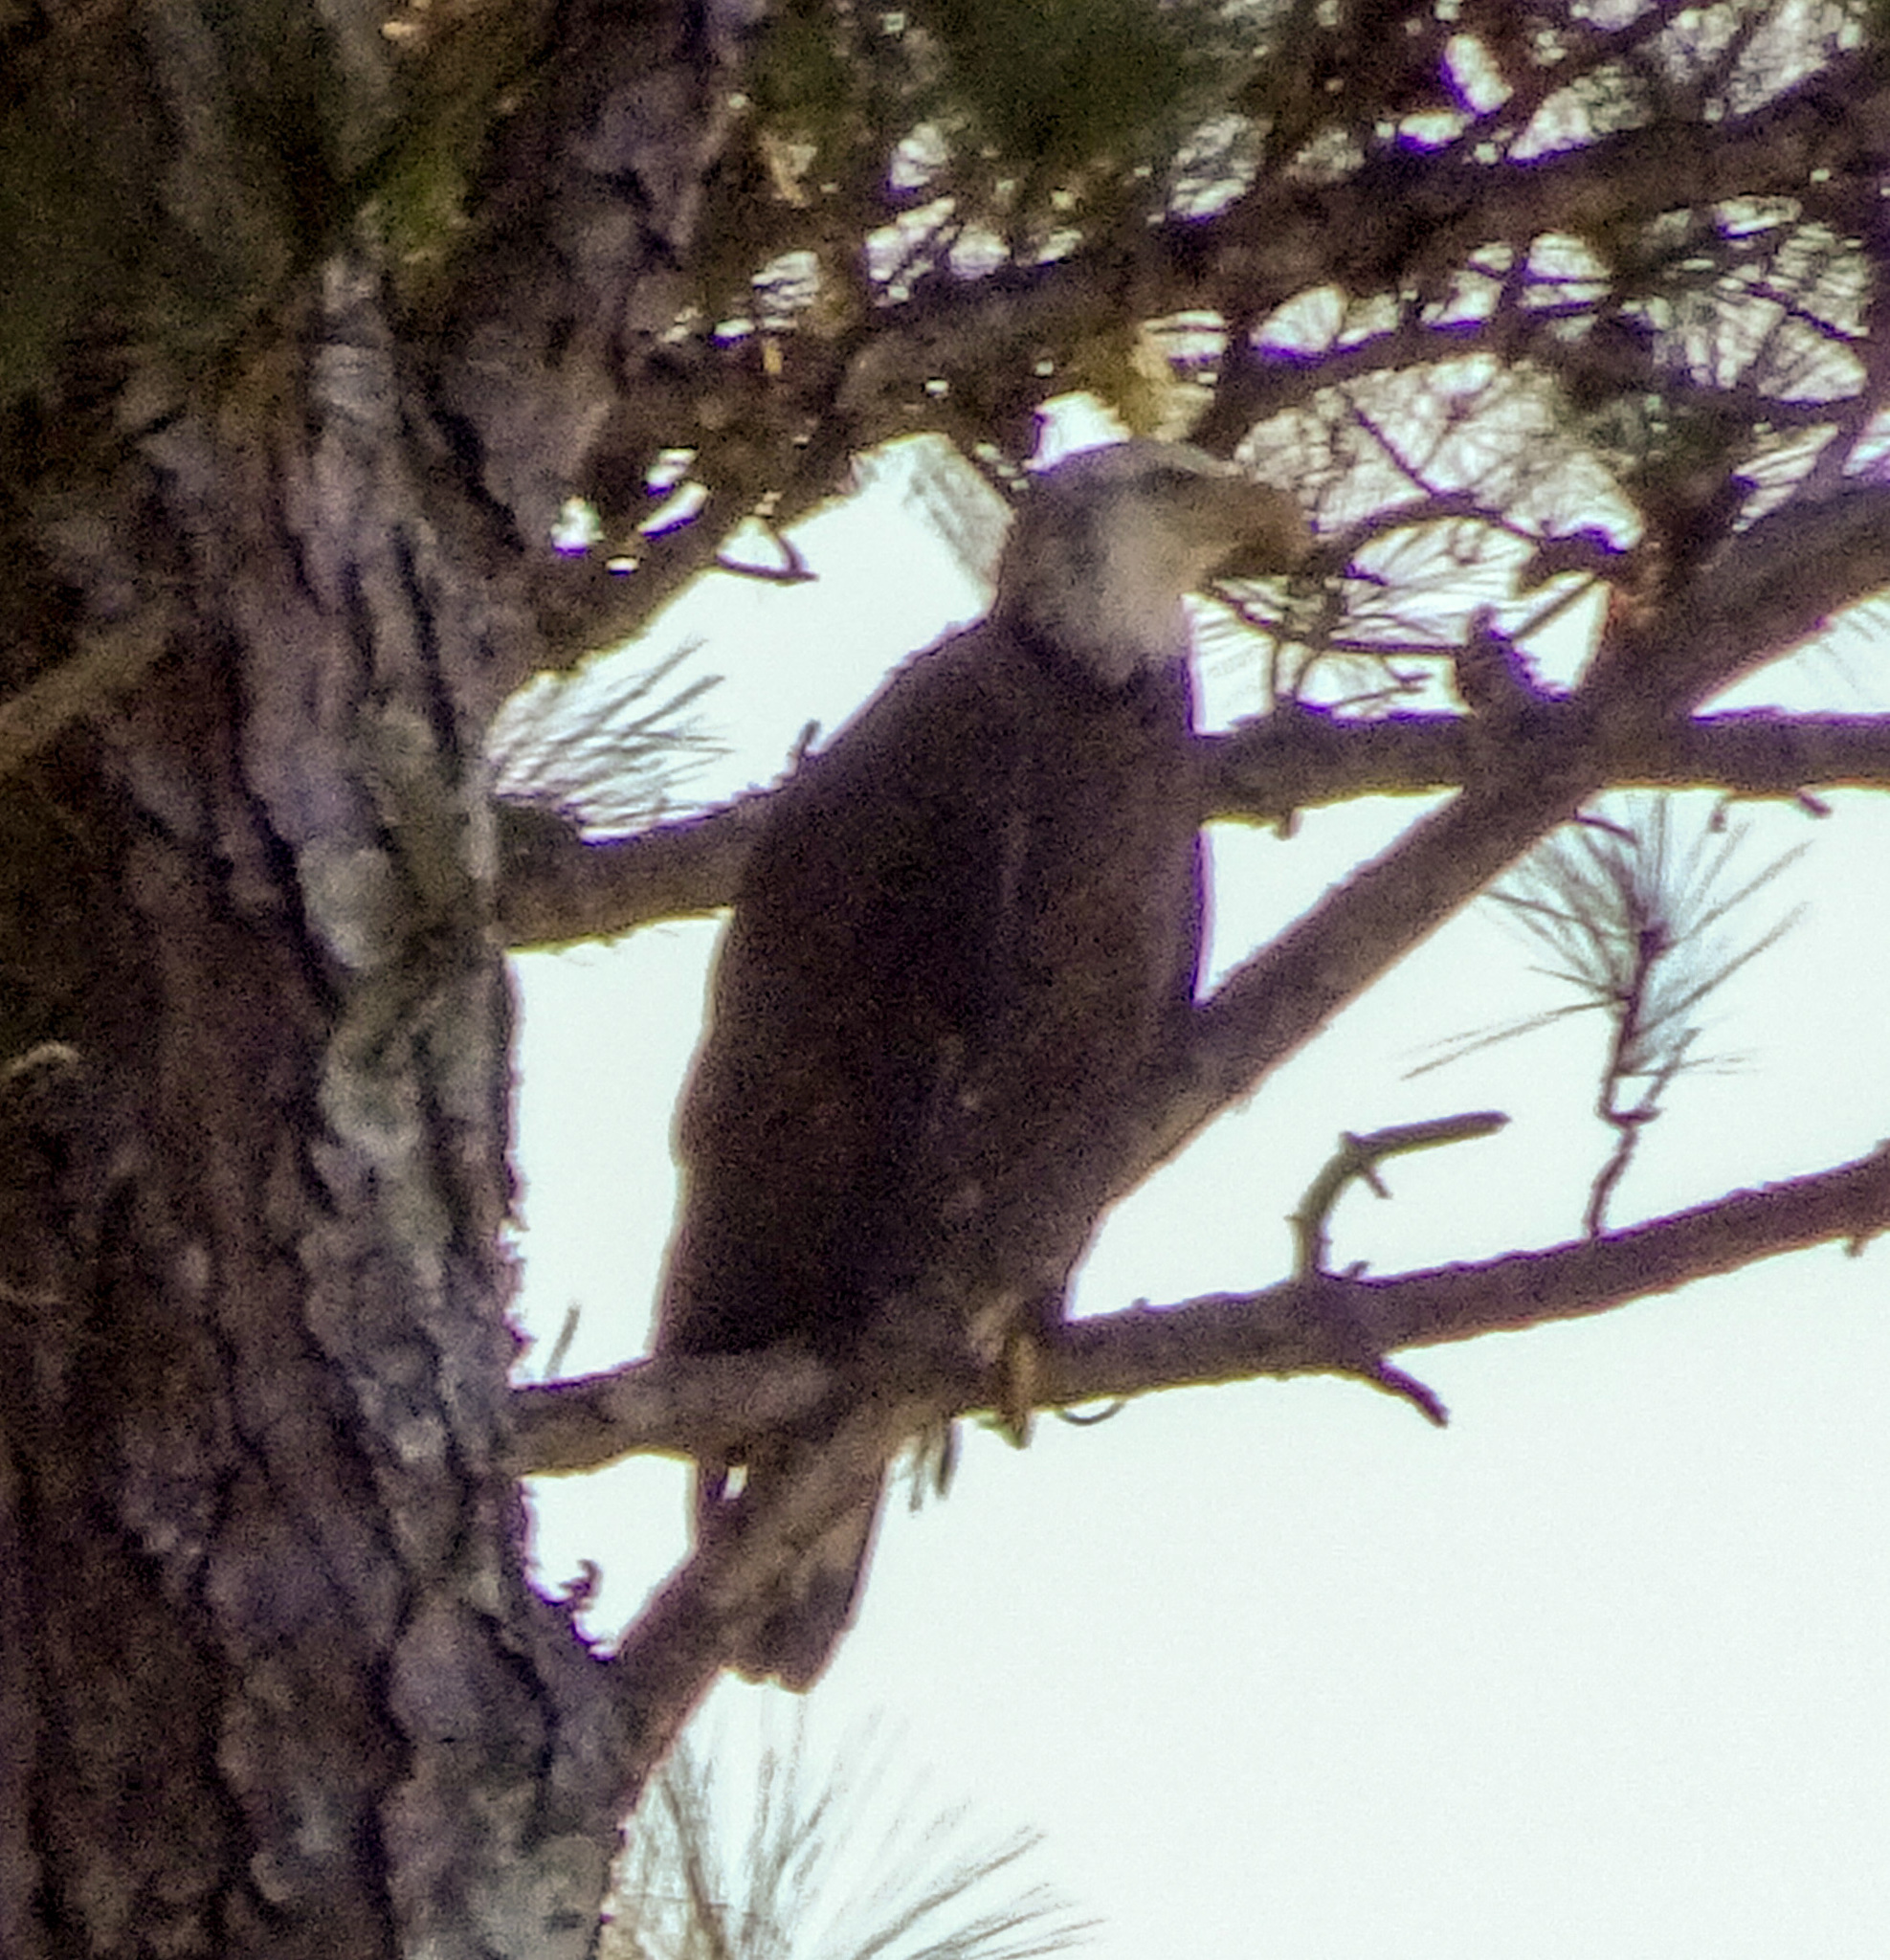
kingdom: Animalia
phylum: Chordata
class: Aves
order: Accipitriformes
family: Accipitridae
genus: Haliaeetus
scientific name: Haliaeetus leucocephalus
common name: Bald eagle
